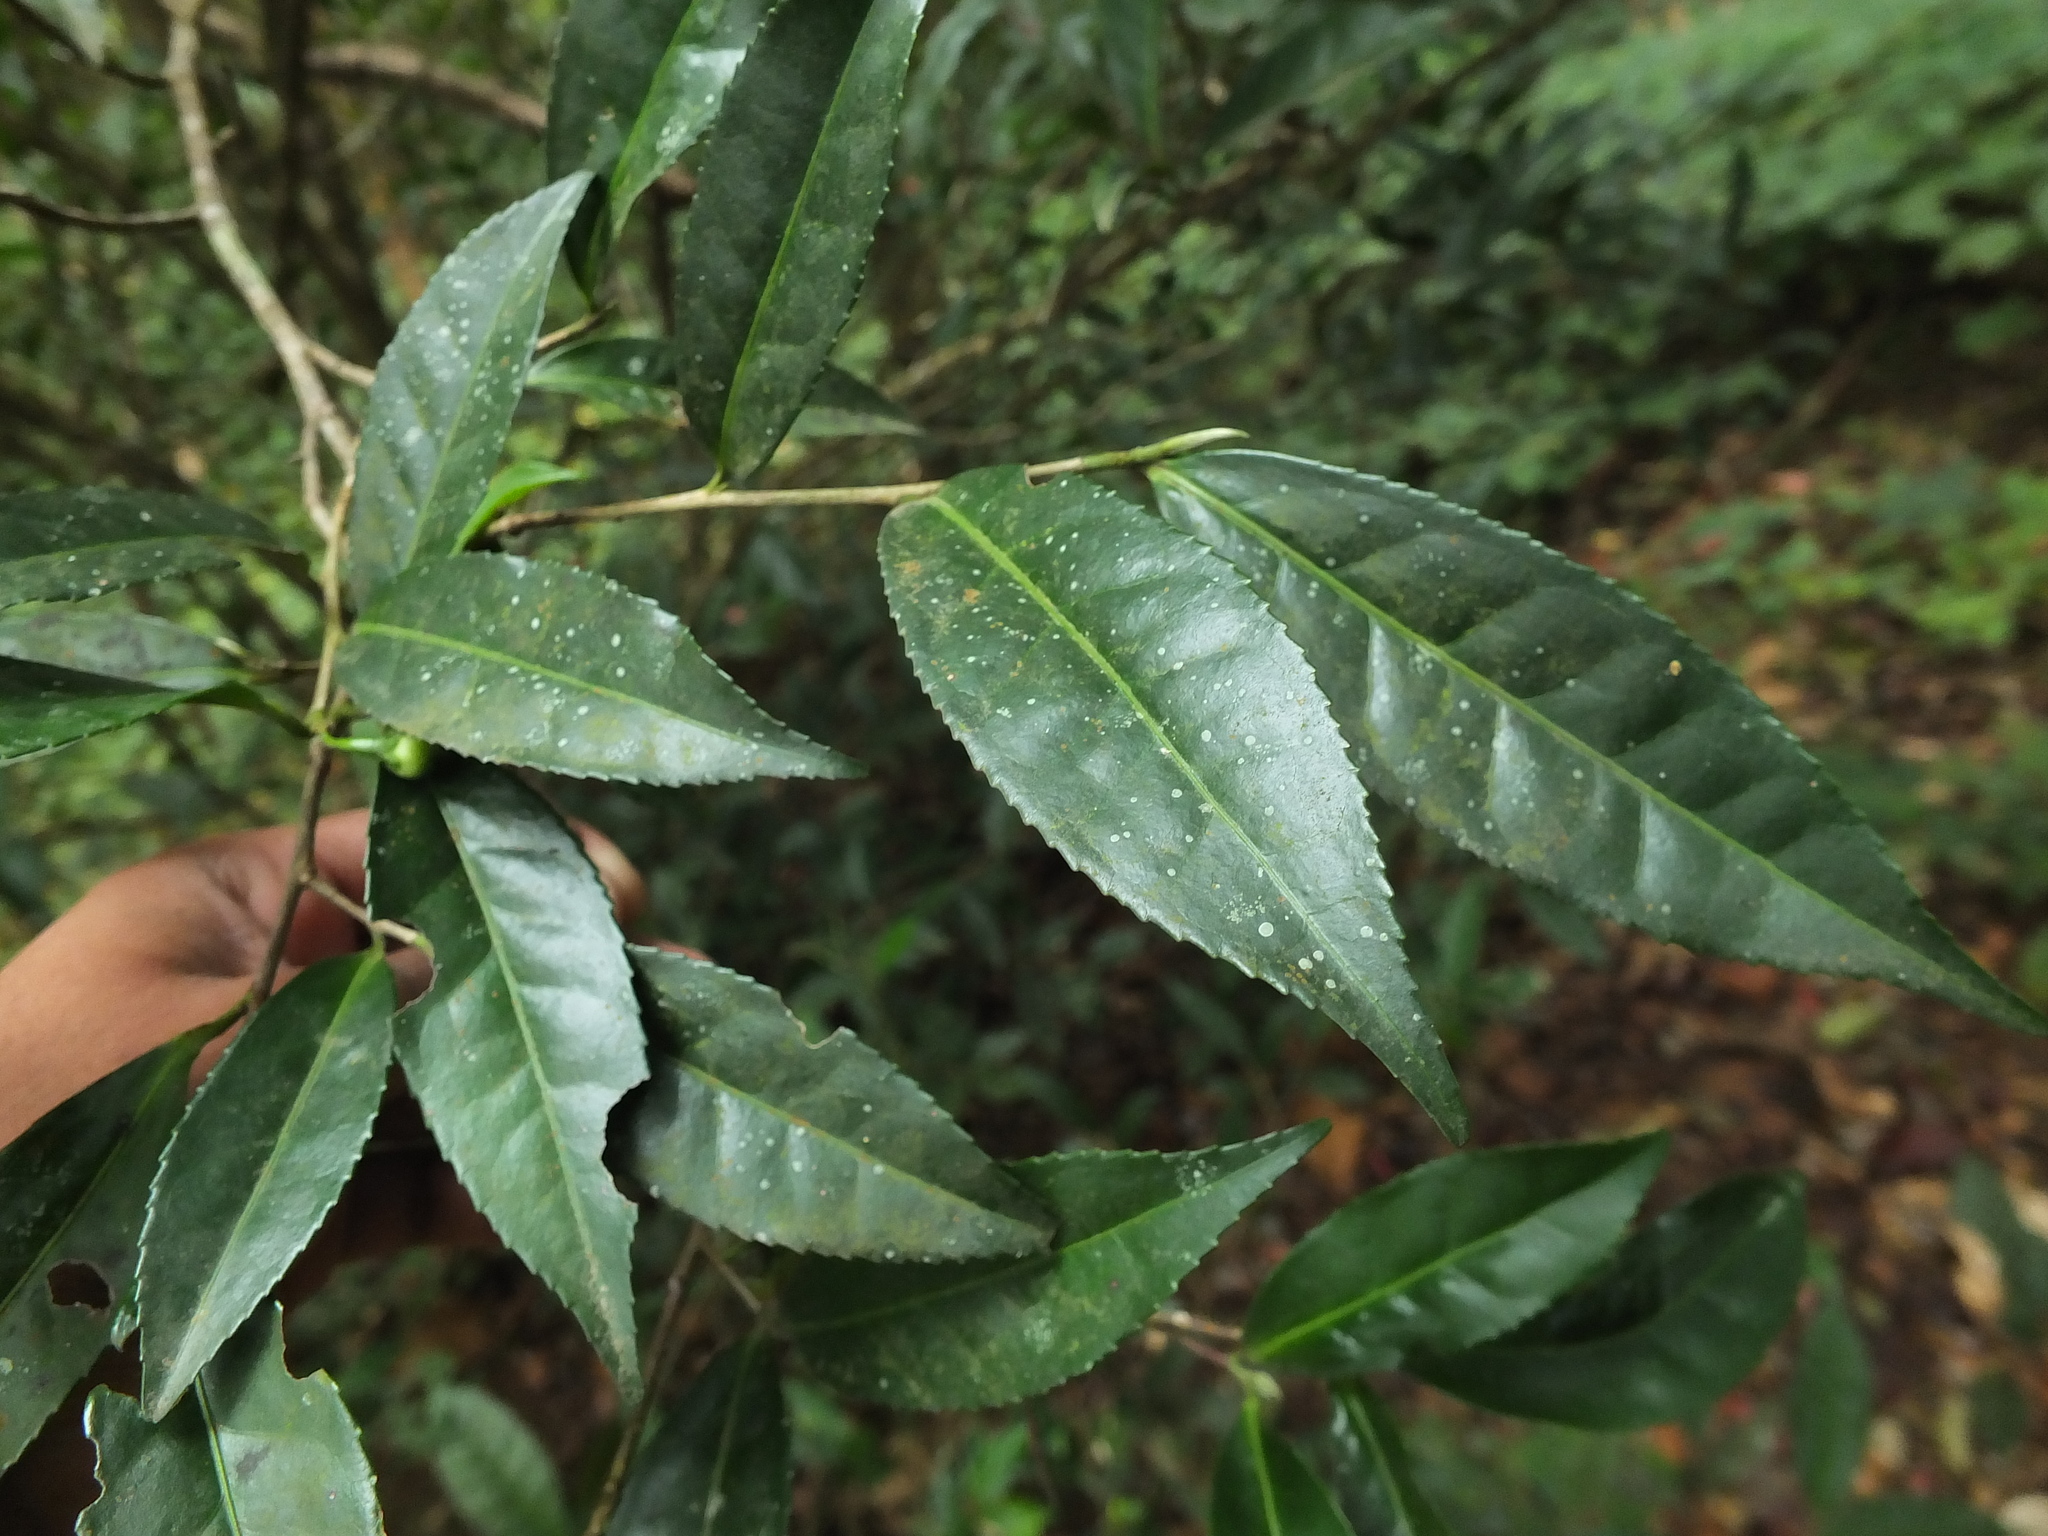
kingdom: Plantae
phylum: Tracheophyta
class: Magnoliopsida
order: Ericales
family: Theaceae
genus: Camellia
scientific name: Camellia sinensis
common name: Tea
